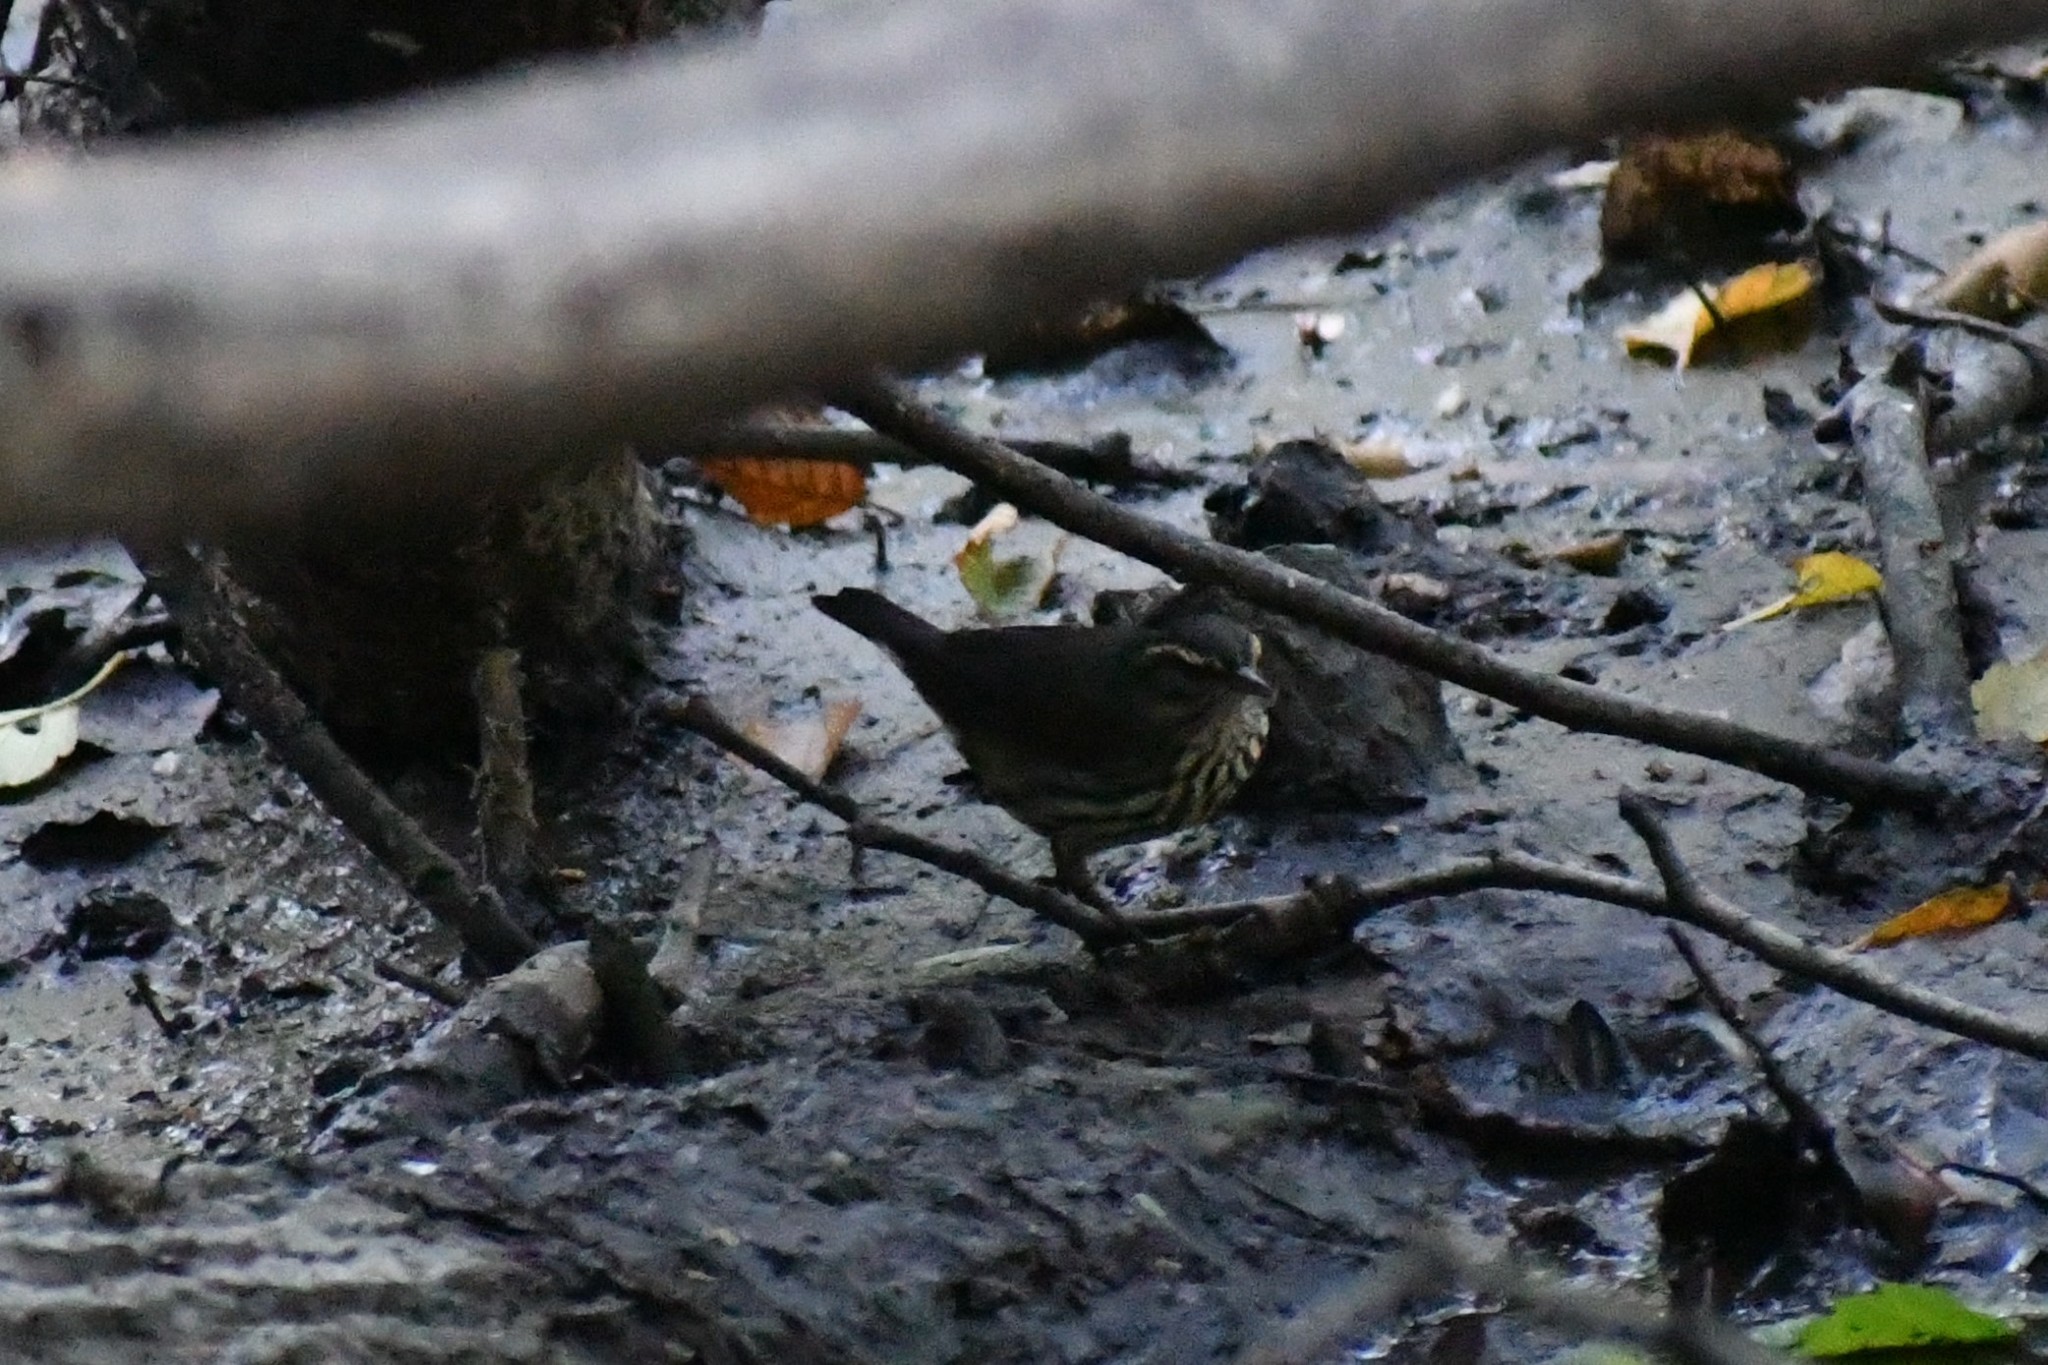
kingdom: Animalia
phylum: Chordata
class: Aves
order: Passeriformes
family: Parulidae
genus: Parkesia
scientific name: Parkesia noveboracensis
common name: Northern waterthrush
